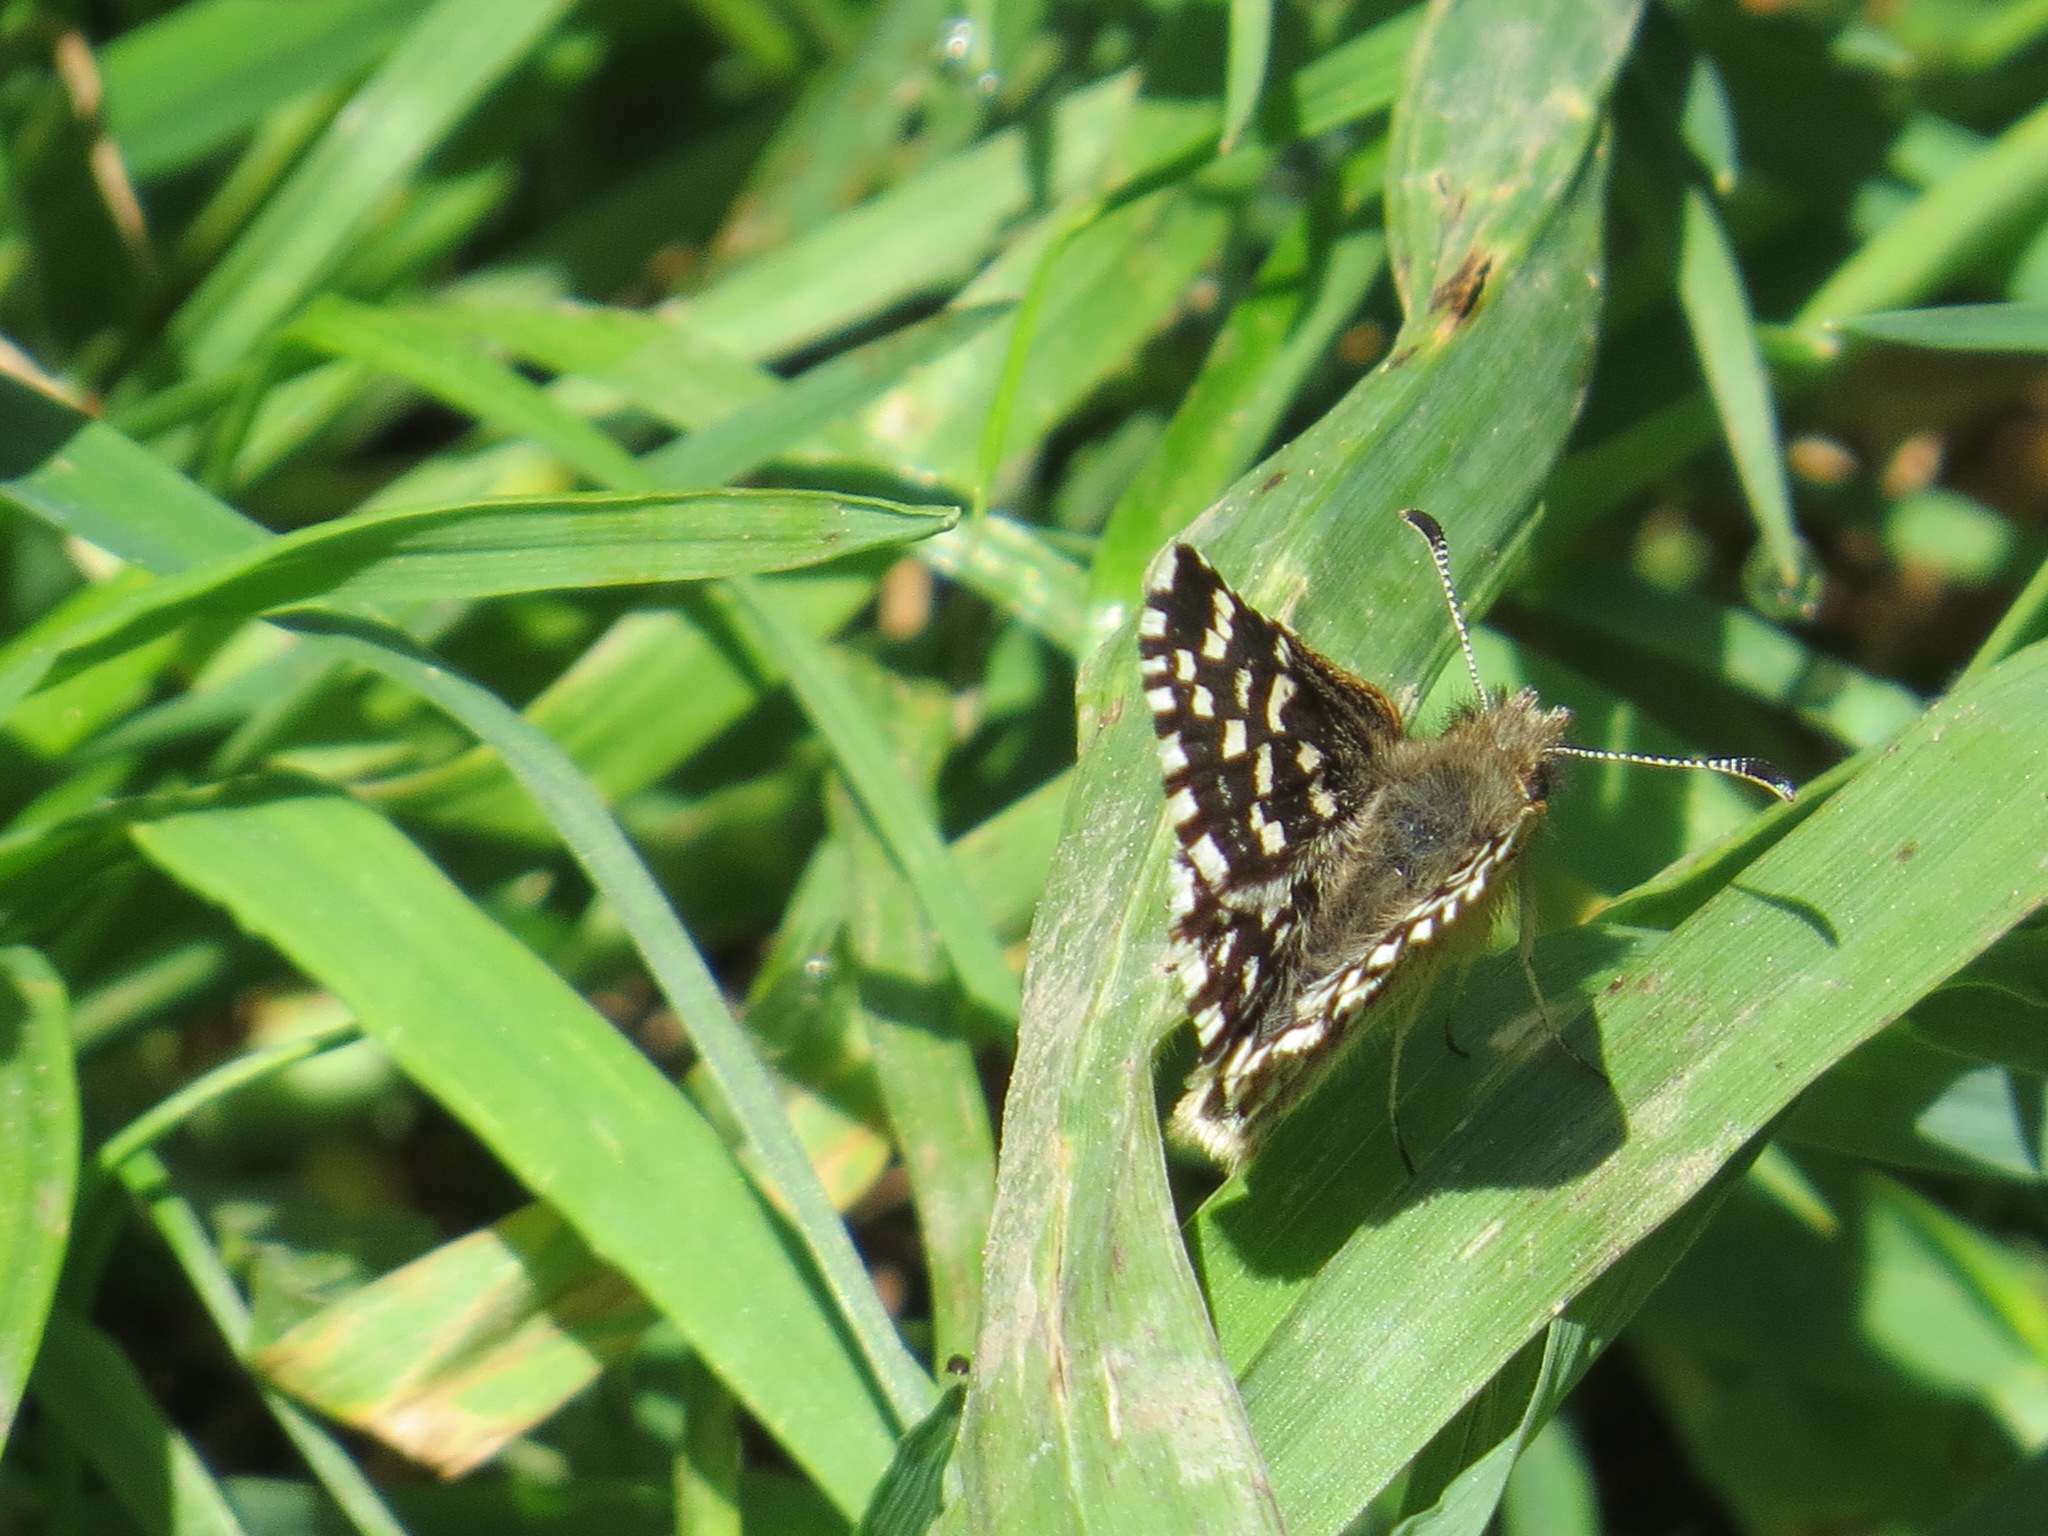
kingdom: Animalia
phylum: Arthropoda
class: Insecta
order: Lepidoptera
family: Hesperiidae
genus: Pyrgus
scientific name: Pyrgus ruralis
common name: Two-banded checkered-skipper
